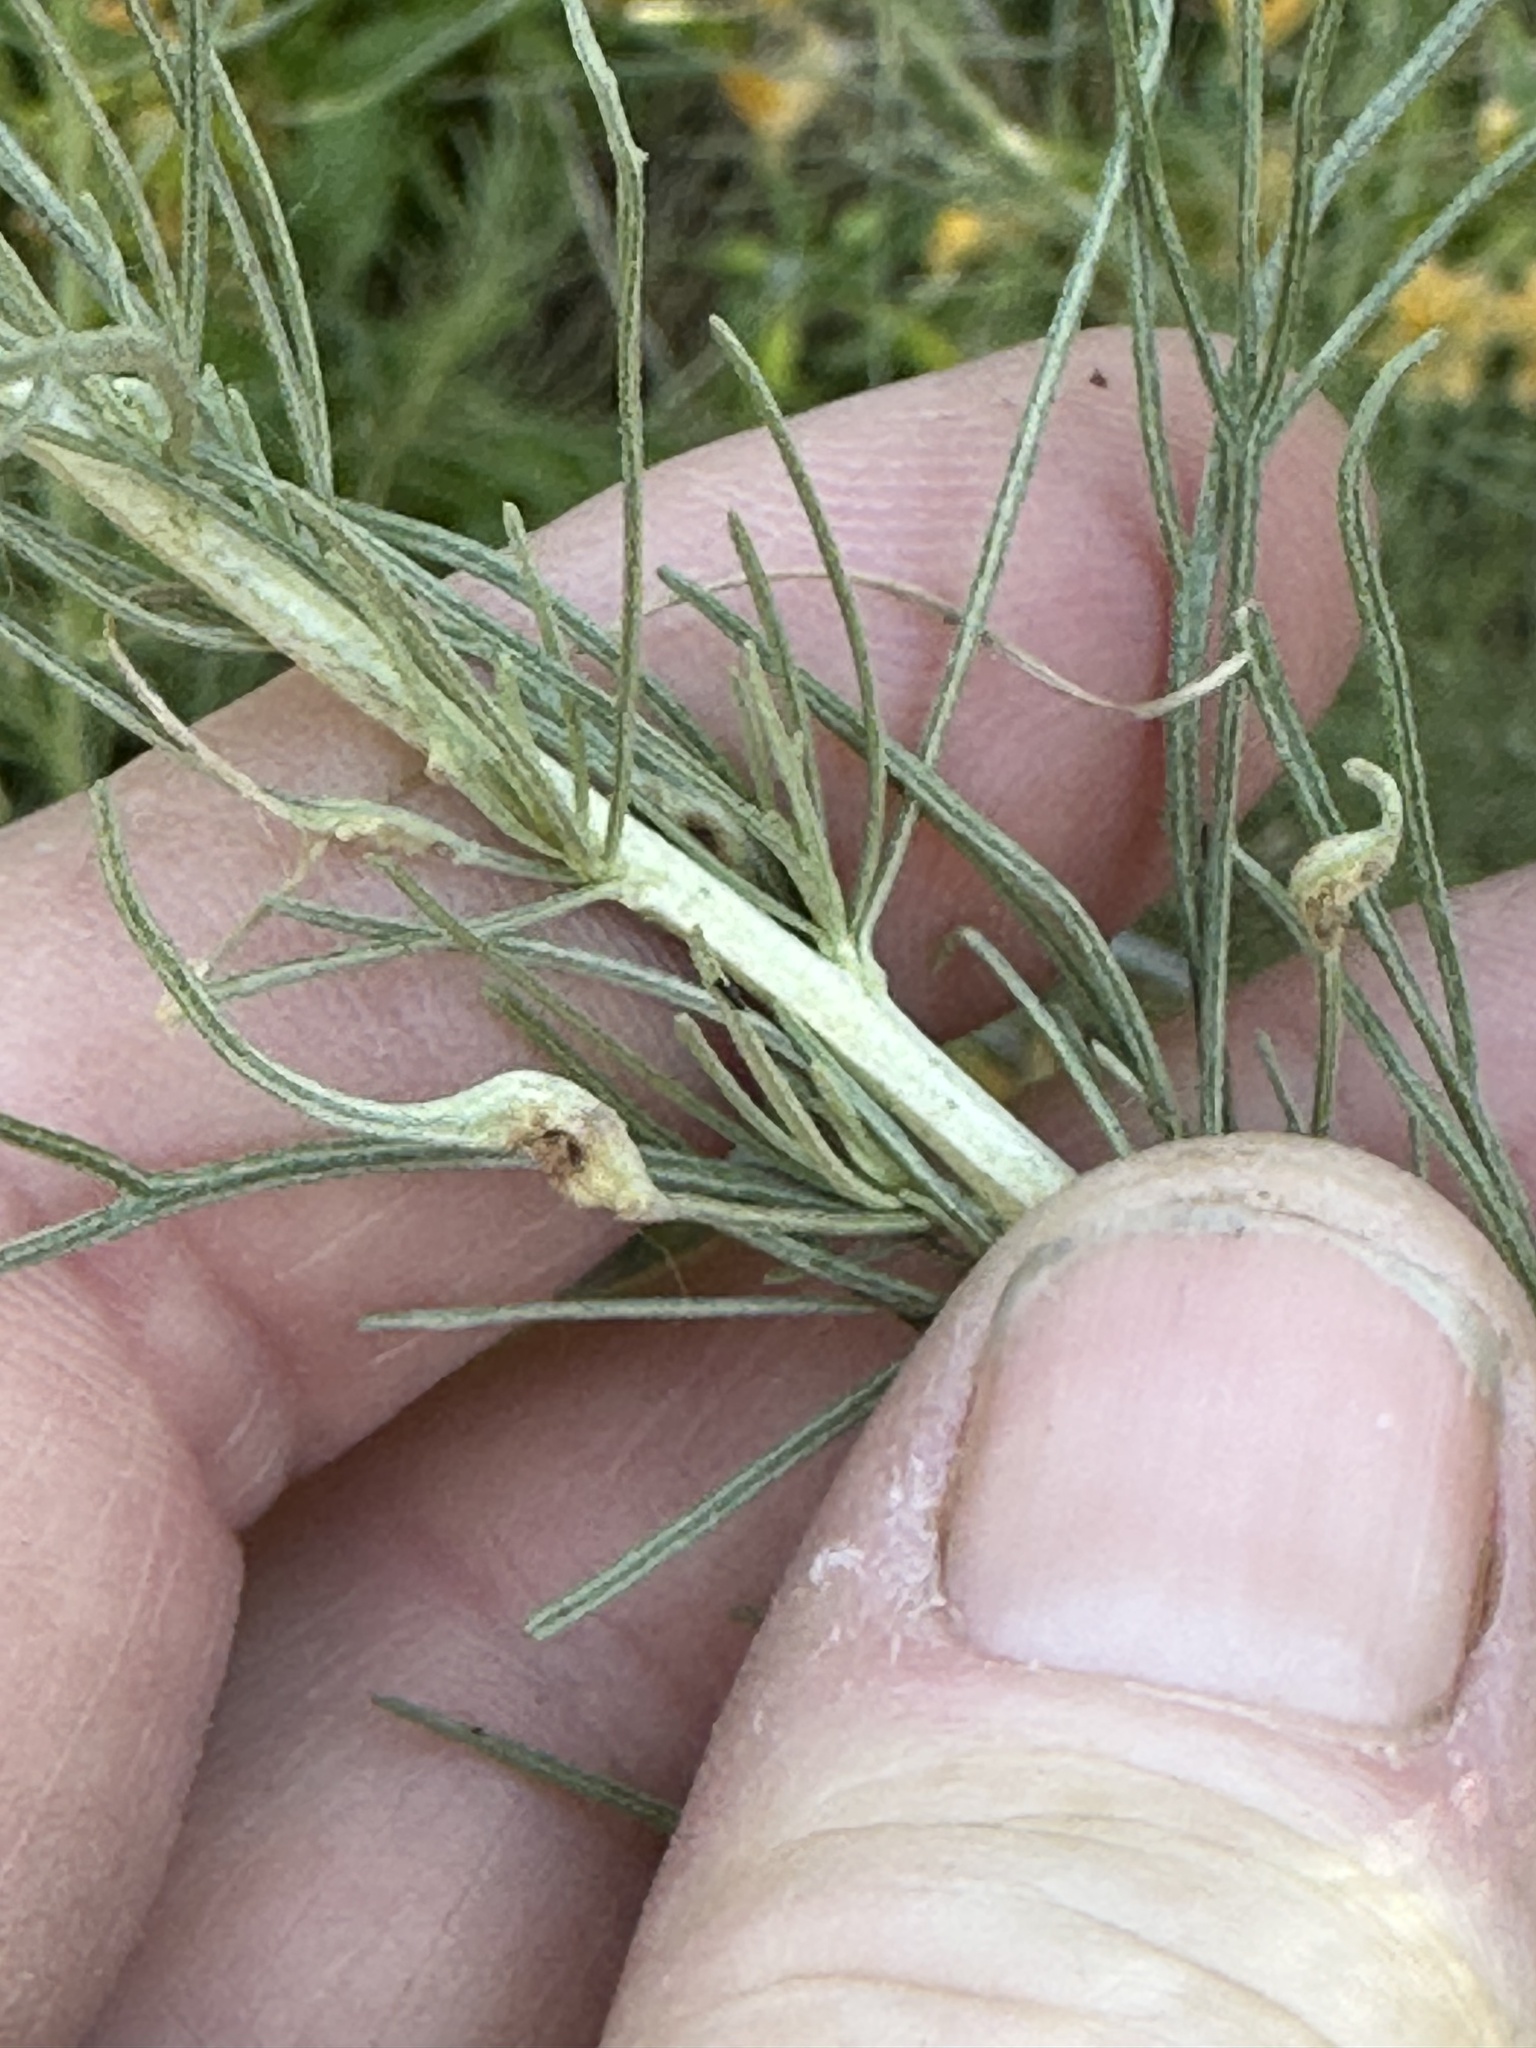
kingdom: Animalia
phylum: Arthropoda
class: Arachnida
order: Trombidiformes
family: Eriophyidae
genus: Aceria
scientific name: Aceria
